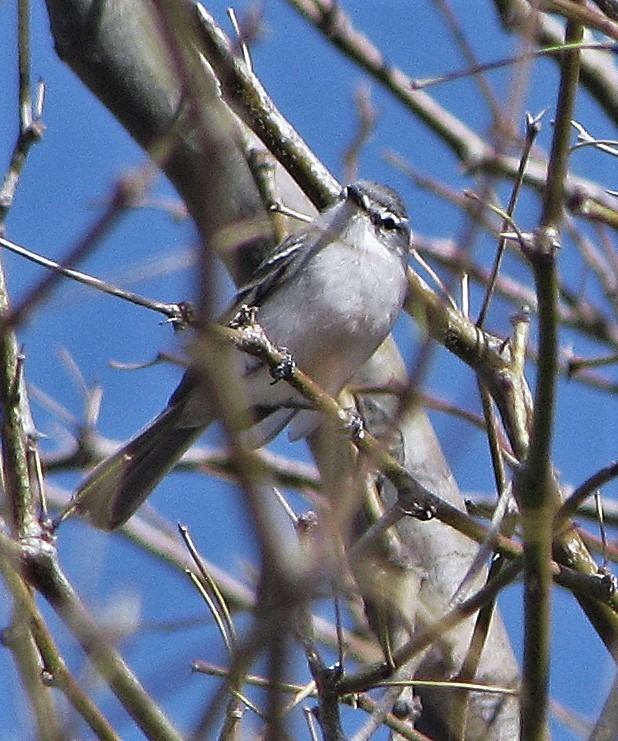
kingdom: Animalia
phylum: Chordata
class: Aves
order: Passeriformes
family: Tyrannidae
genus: Serpophaga
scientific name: Serpophaga subcristata
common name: White-crested tyrannulet
